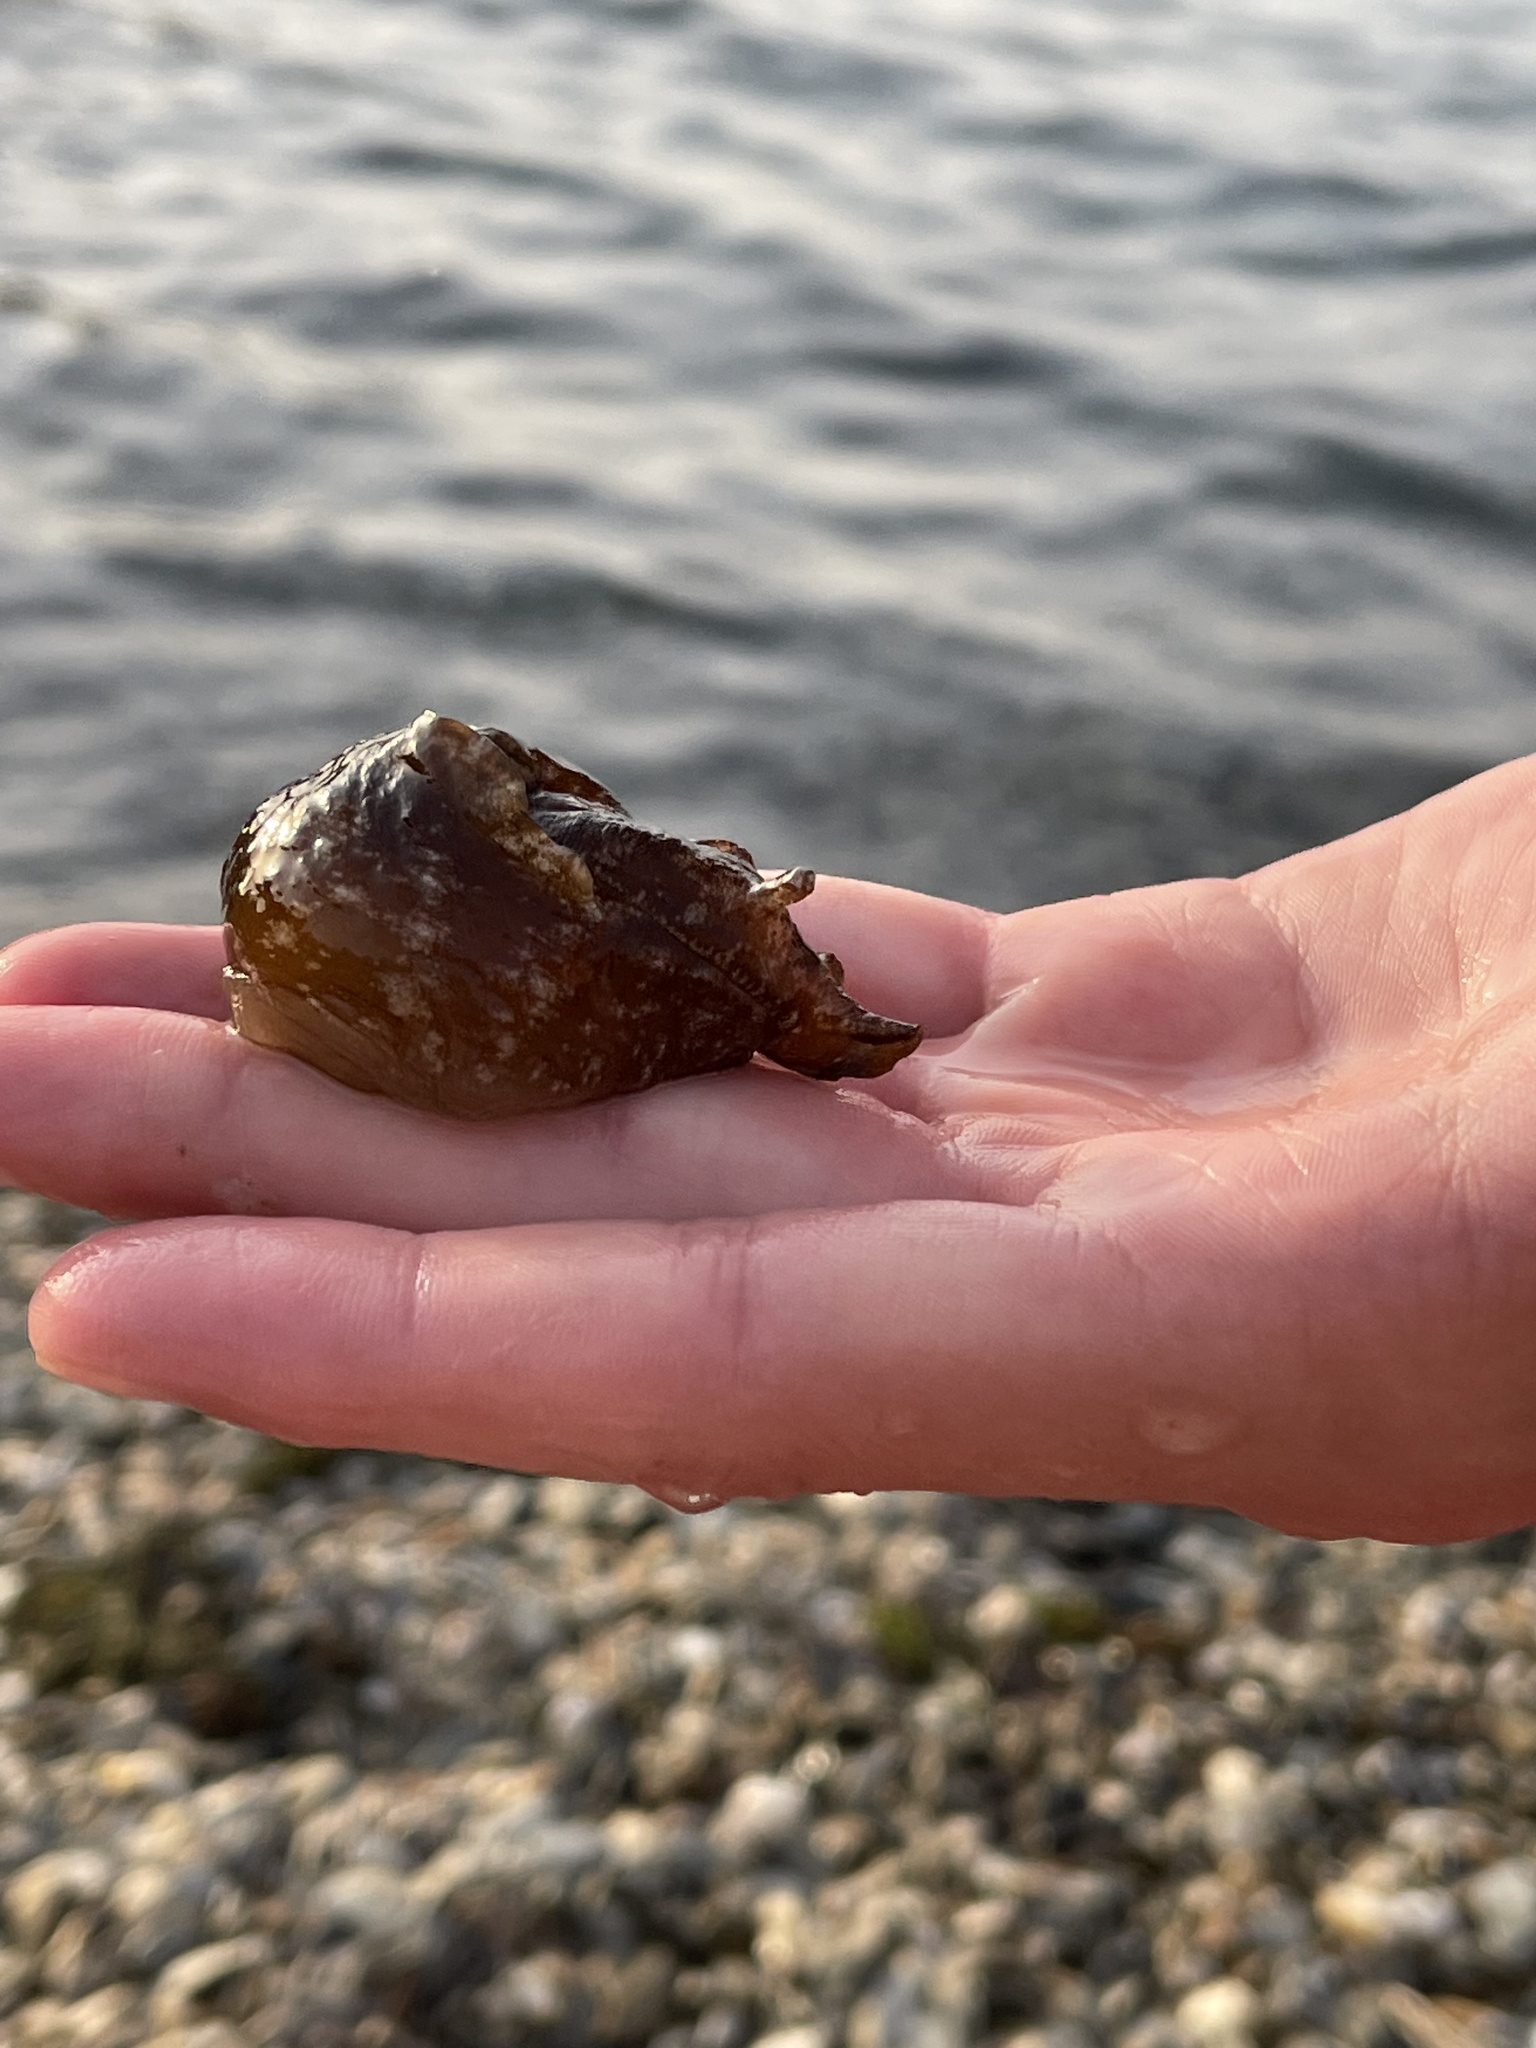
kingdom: Animalia
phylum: Mollusca
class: Gastropoda
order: Aplysiida
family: Aplysiidae
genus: Aplysia
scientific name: Aplysia punctata
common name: Common sea hare
